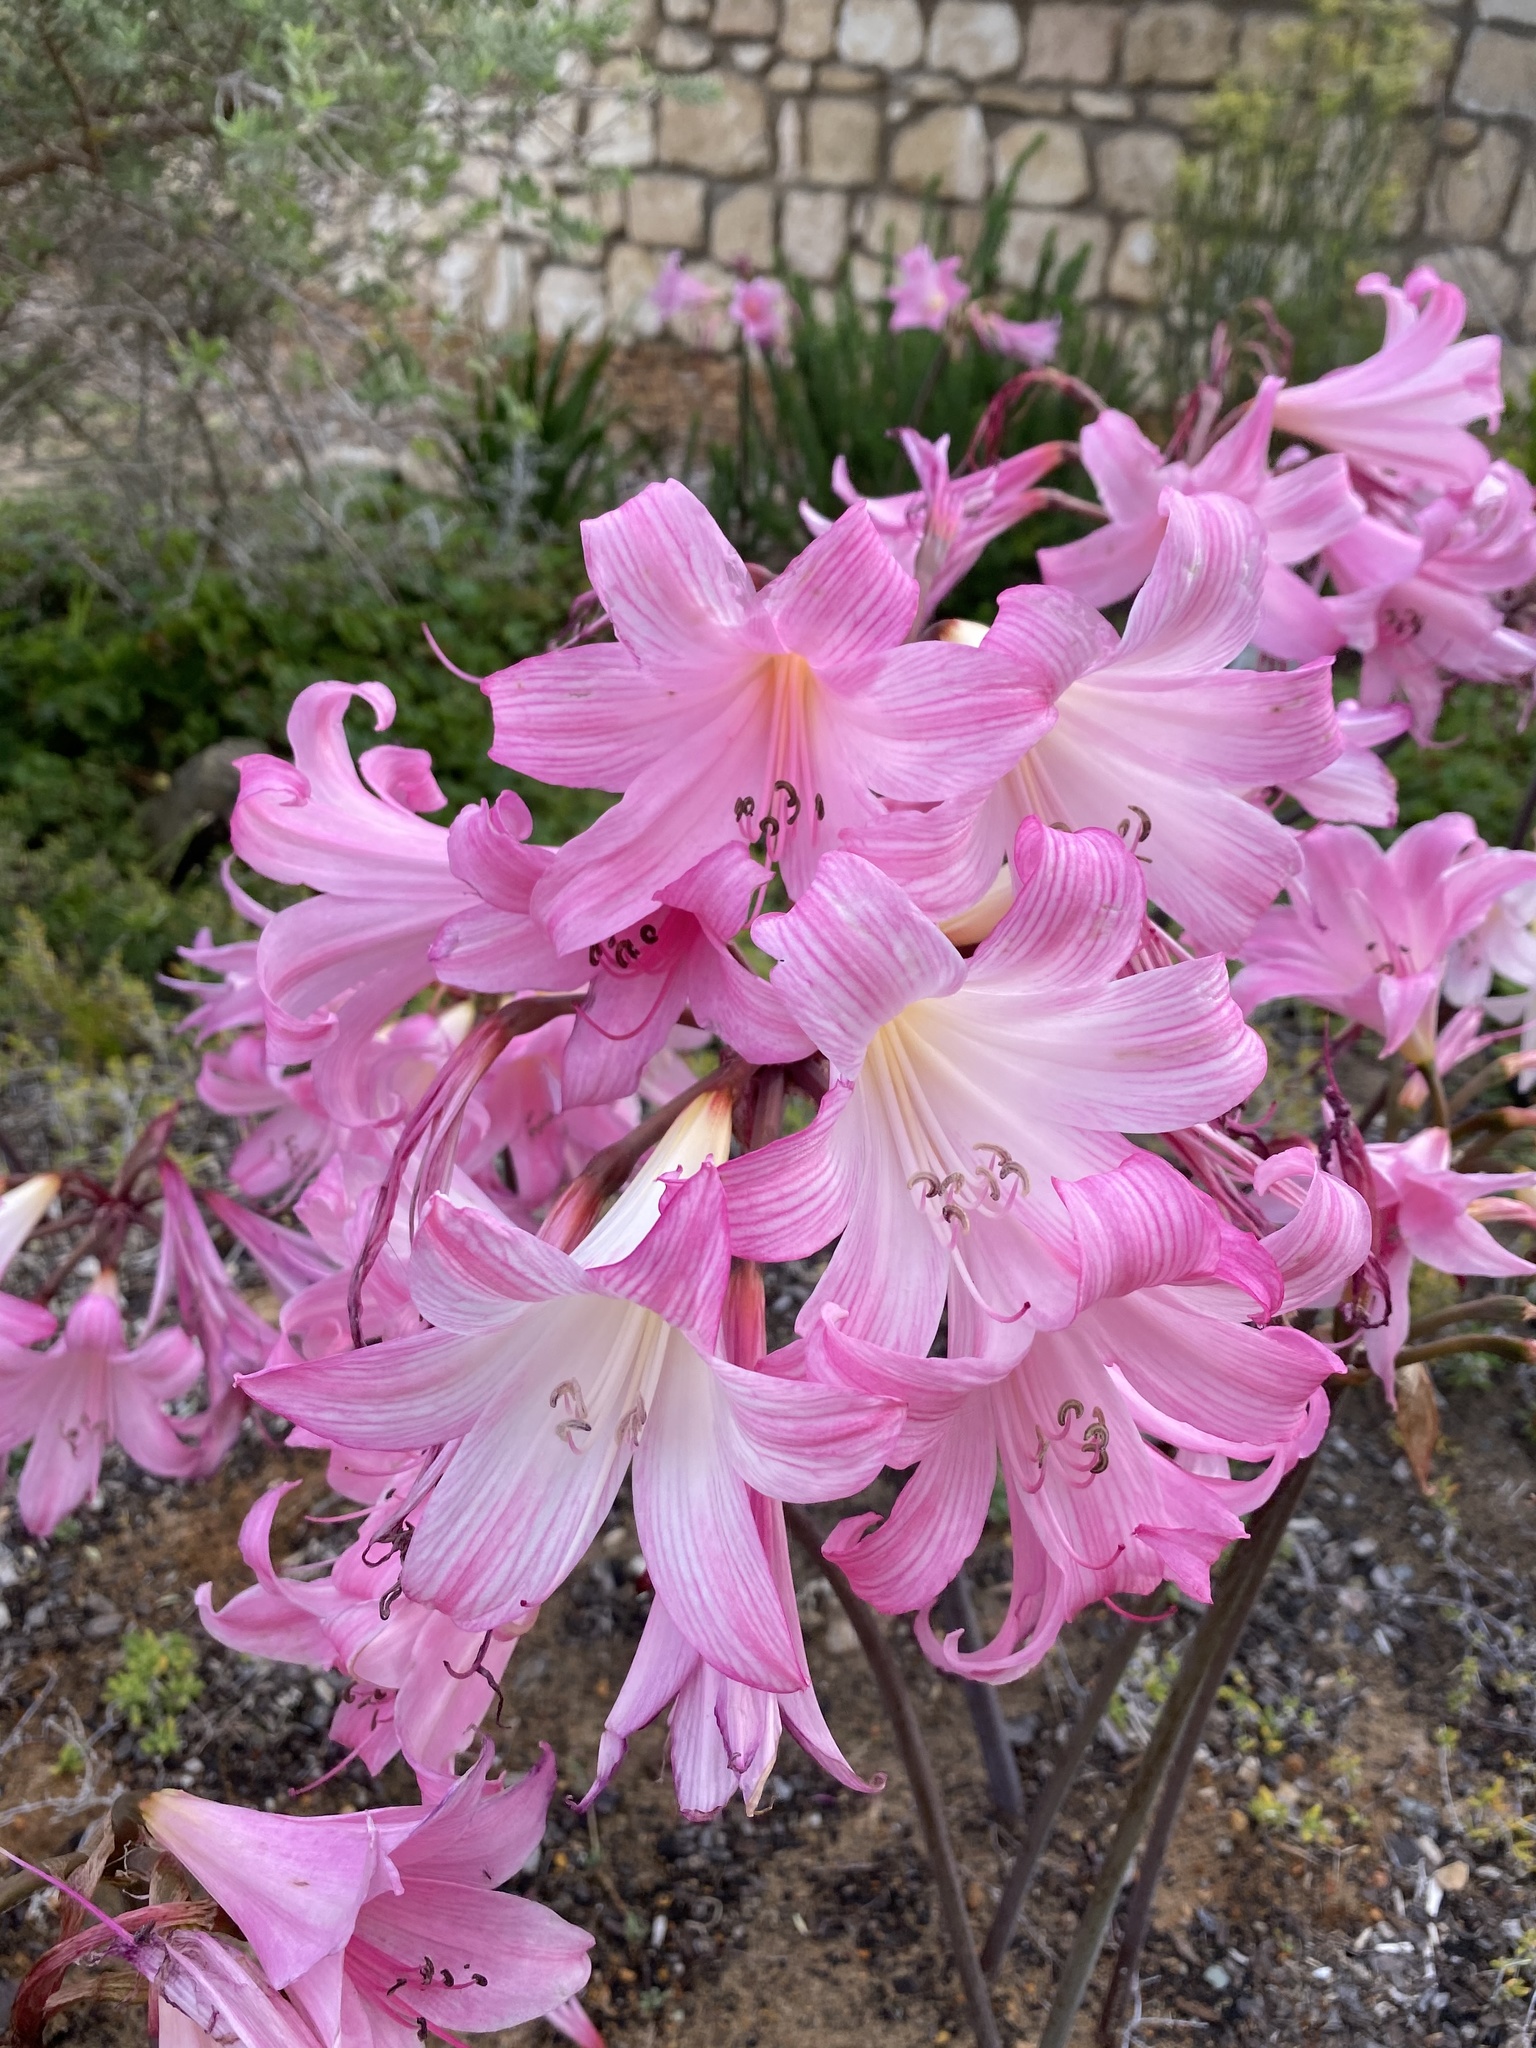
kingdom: Plantae
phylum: Tracheophyta
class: Liliopsida
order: Asparagales
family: Amaryllidaceae
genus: Amaryllis
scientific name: Amaryllis belladonna
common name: Jersey lily
